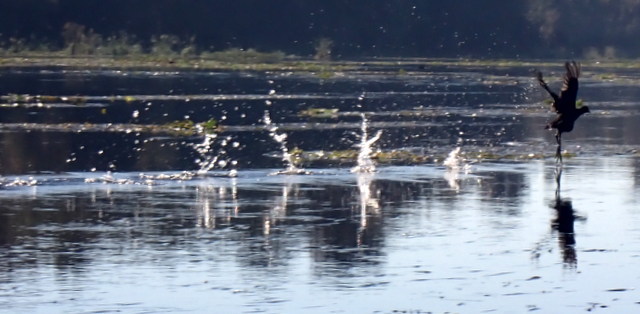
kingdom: Animalia
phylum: Chordata
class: Aves
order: Gruiformes
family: Rallidae
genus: Gallinula
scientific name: Gallinula chloropus
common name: Common moorhen
